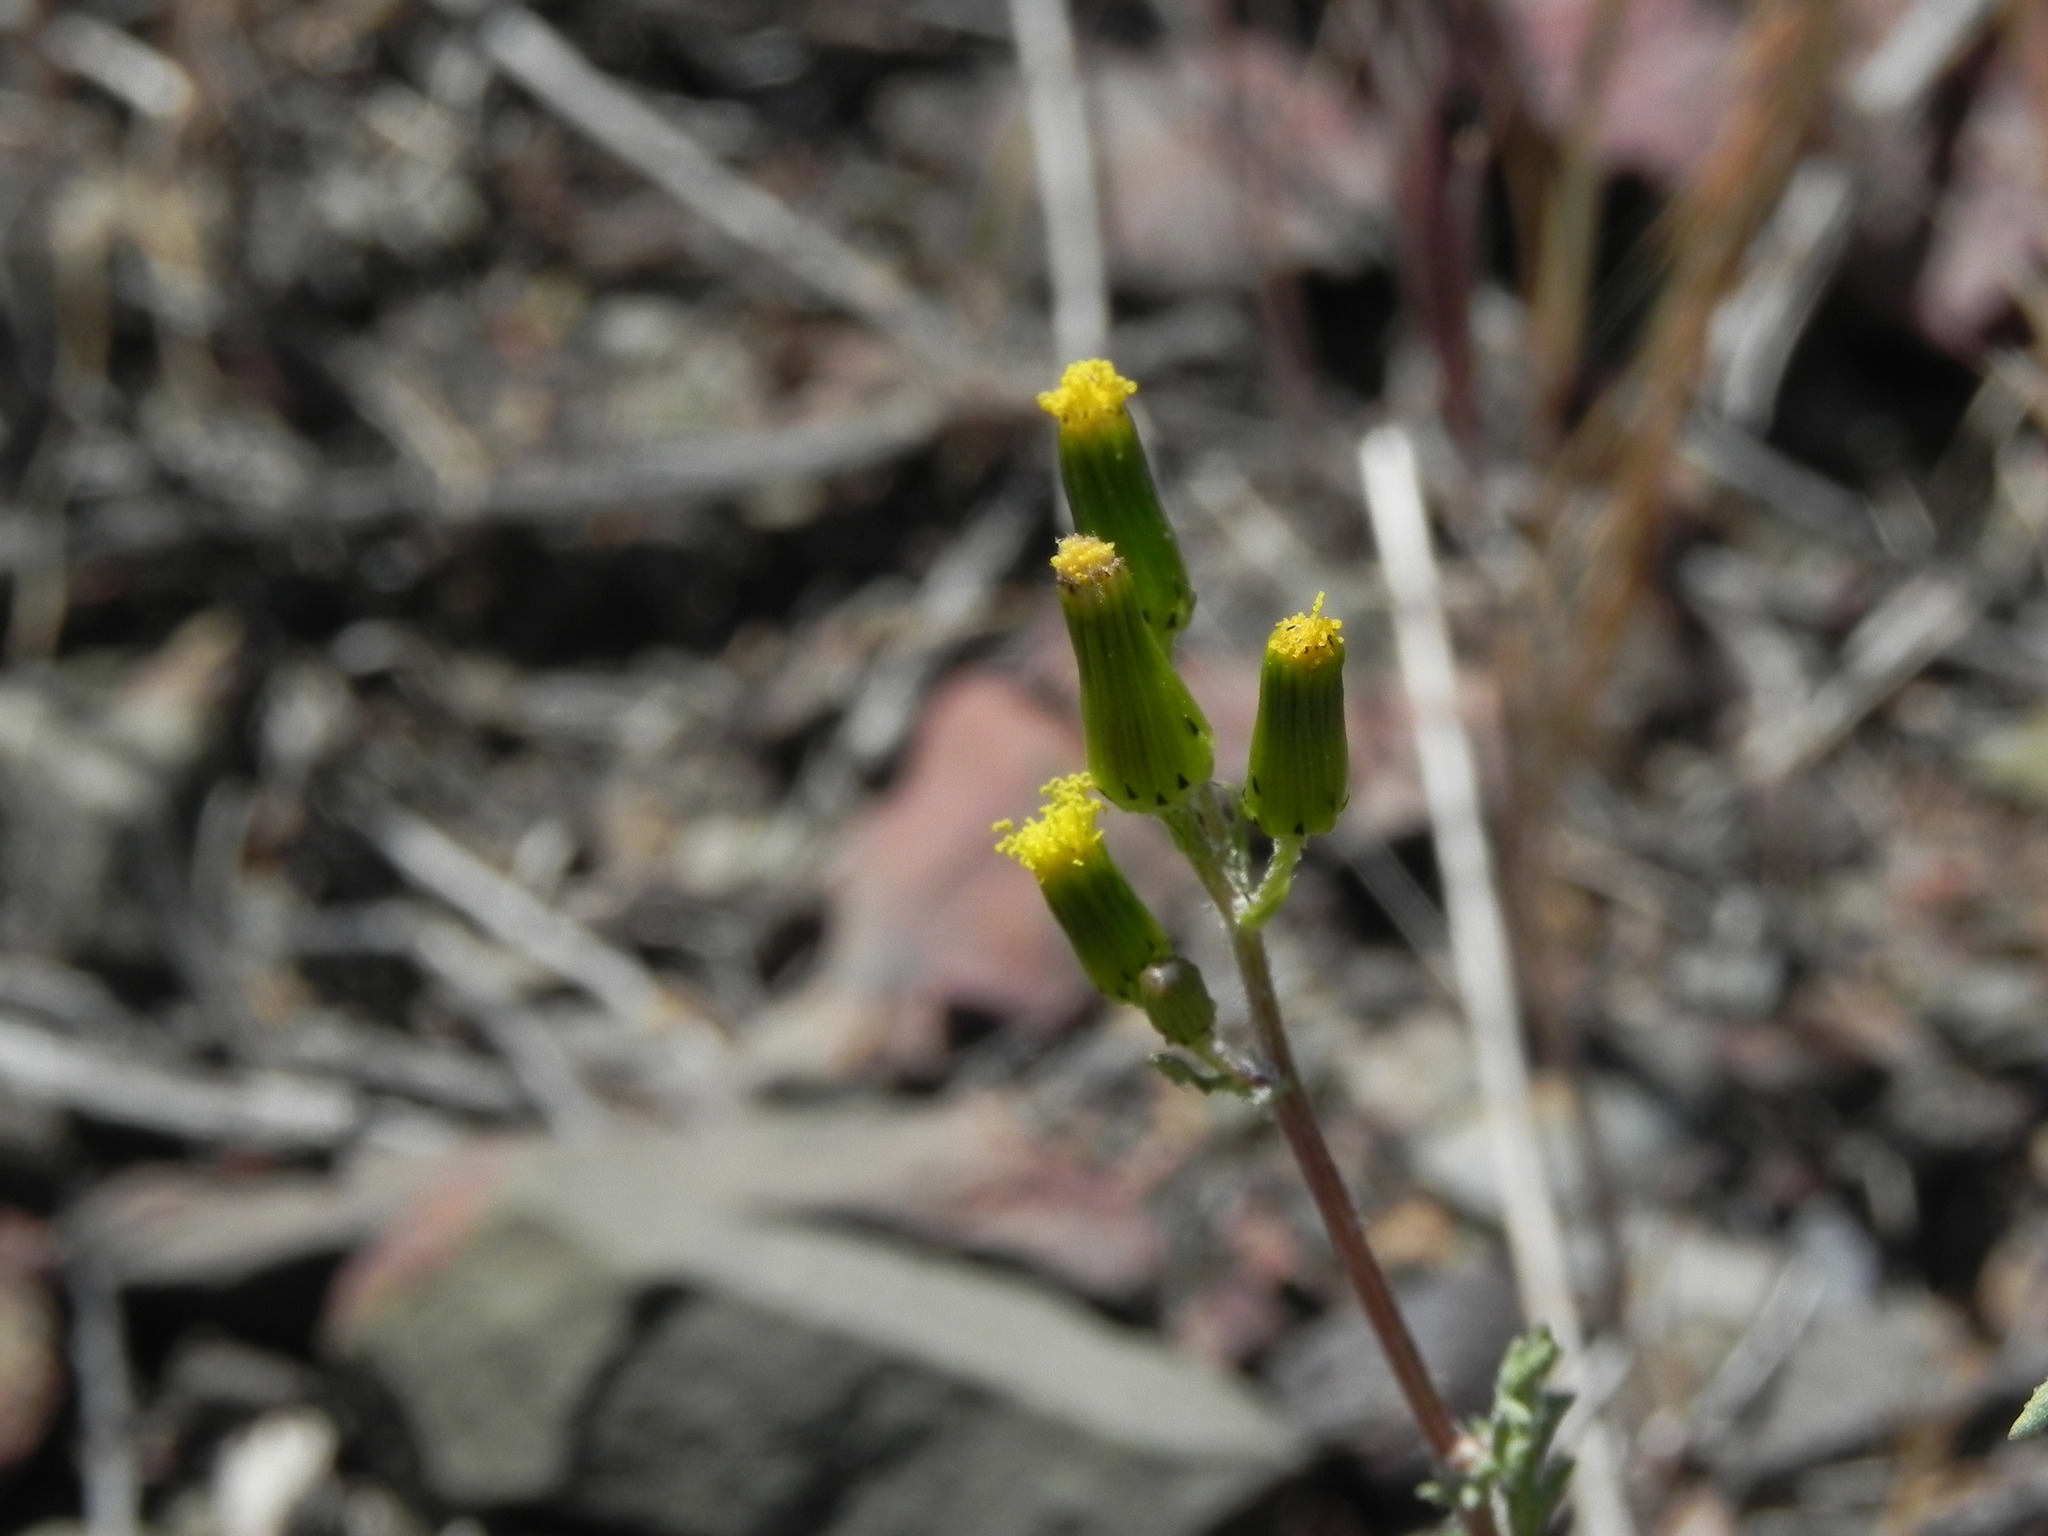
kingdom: Plantae
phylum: Tracheophyta
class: Magnoliopsida
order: Asterales
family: Asteraceae
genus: Senecio
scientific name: Senecio vulgaris
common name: Old-man-in-the-spring
